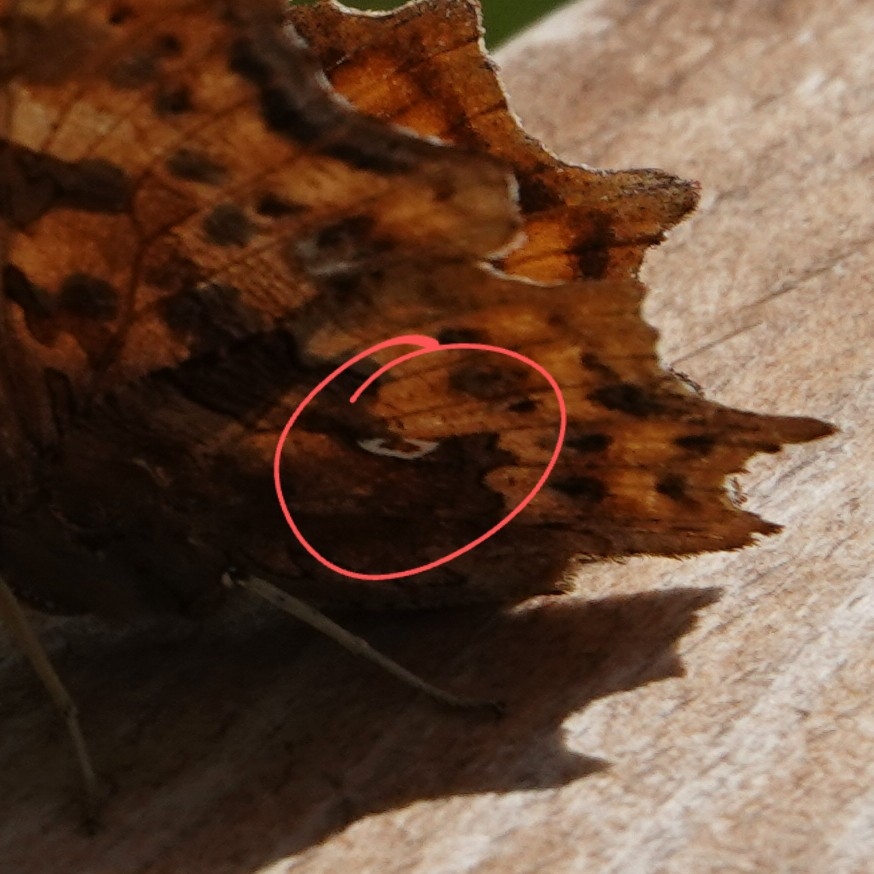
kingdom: Animalia
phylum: Arthropoda
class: Insecta
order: Lepidoptera
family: Nymphalidae
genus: Polygonia
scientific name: Polygonia c-album
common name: Comma
